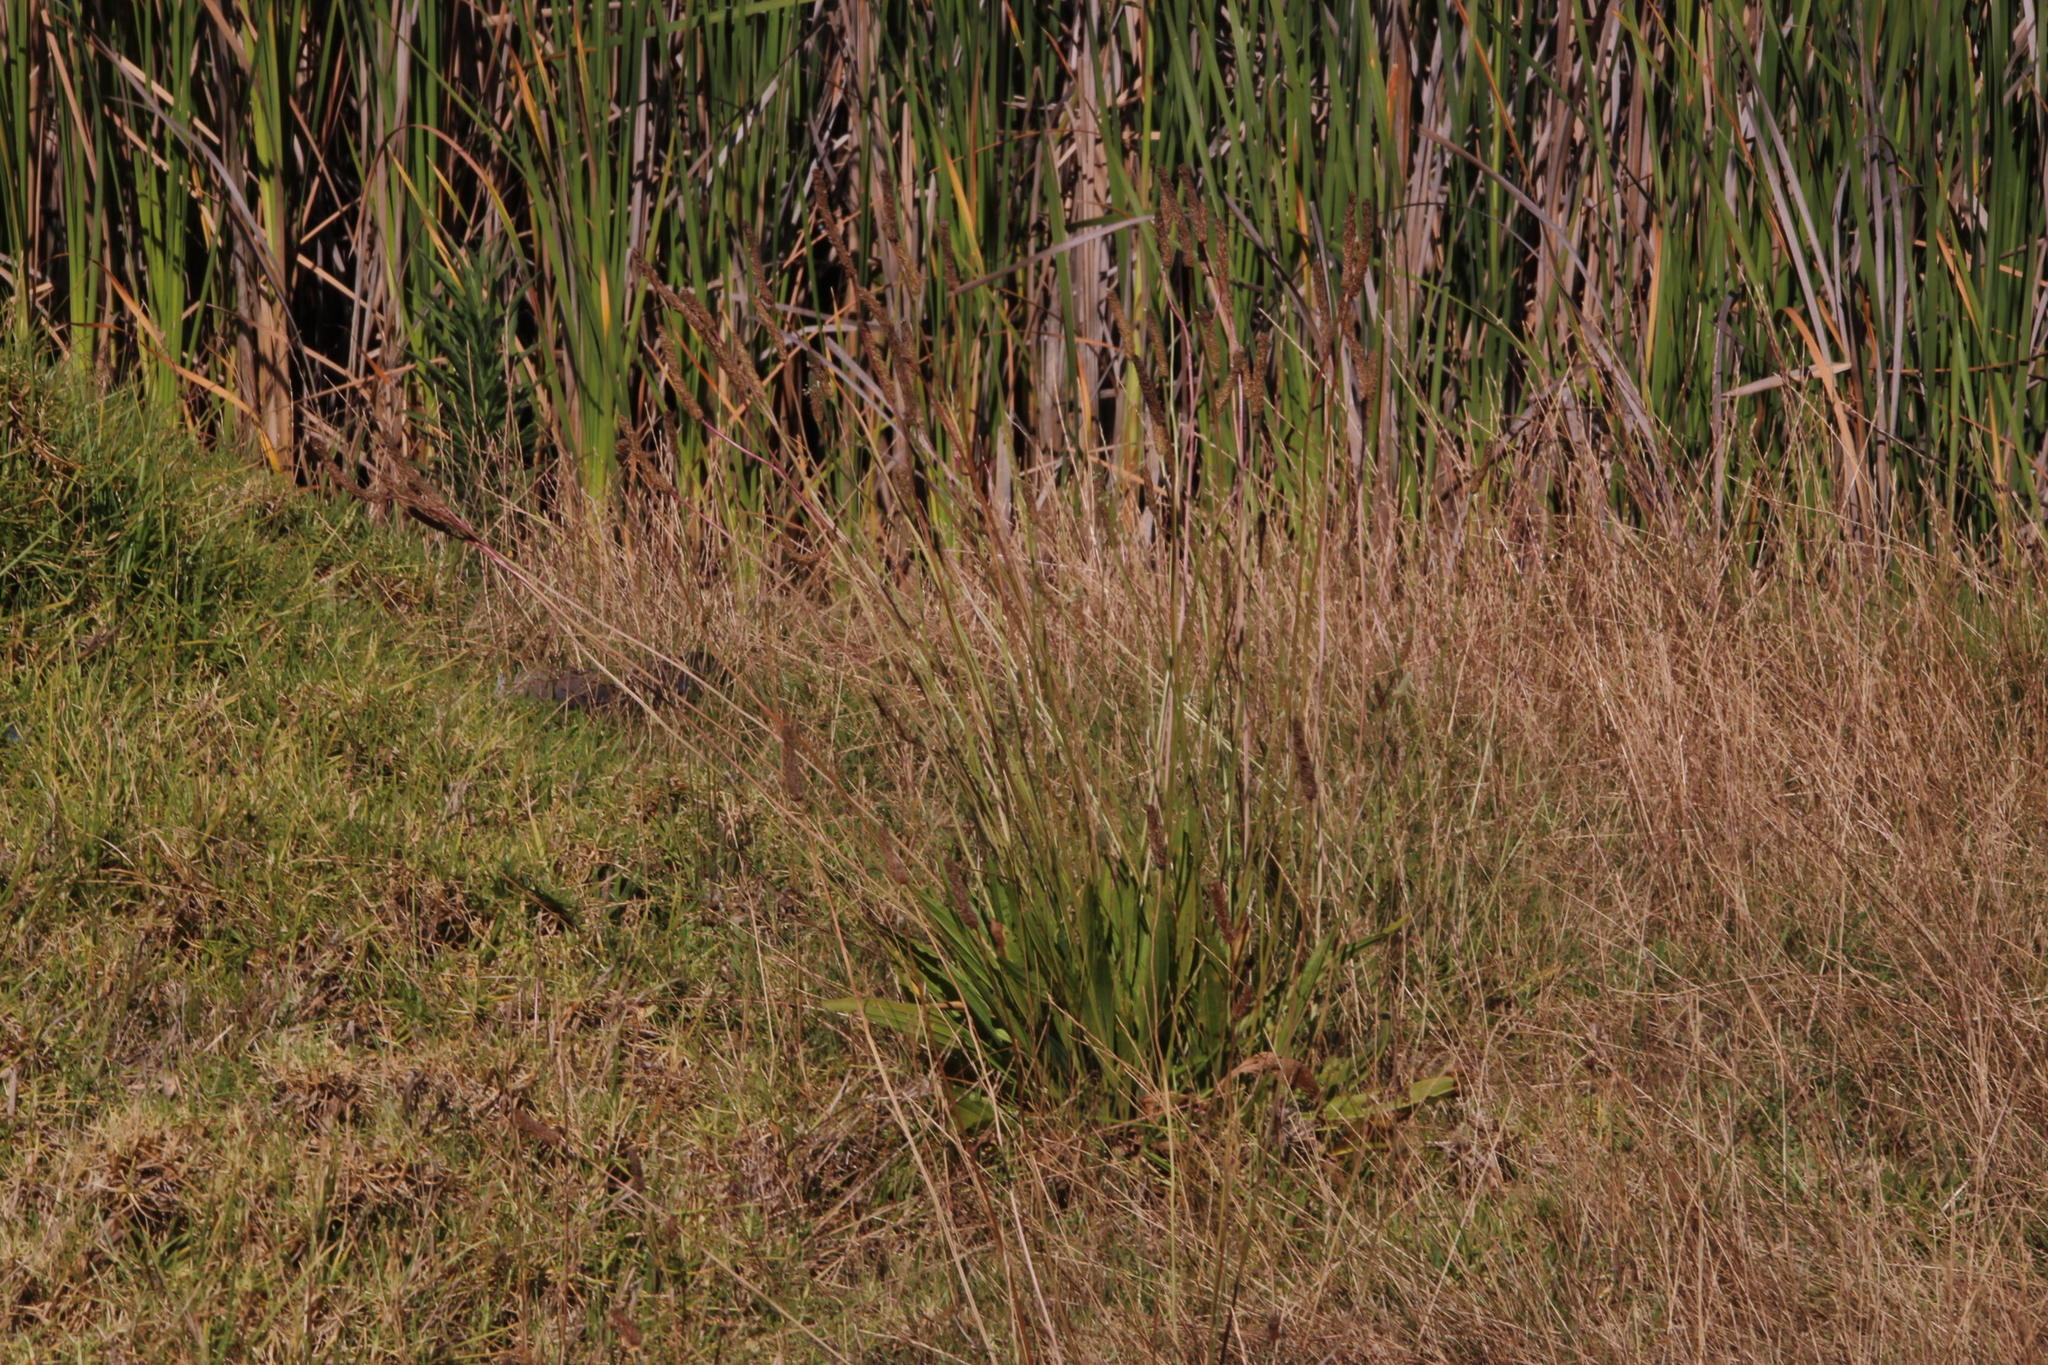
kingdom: Plantae
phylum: Tracheophyta
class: Magnoliopsida
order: Lamiales
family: Plantaginaceae
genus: Plantago
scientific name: Plantago lanceolata
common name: Ribwort plantain
